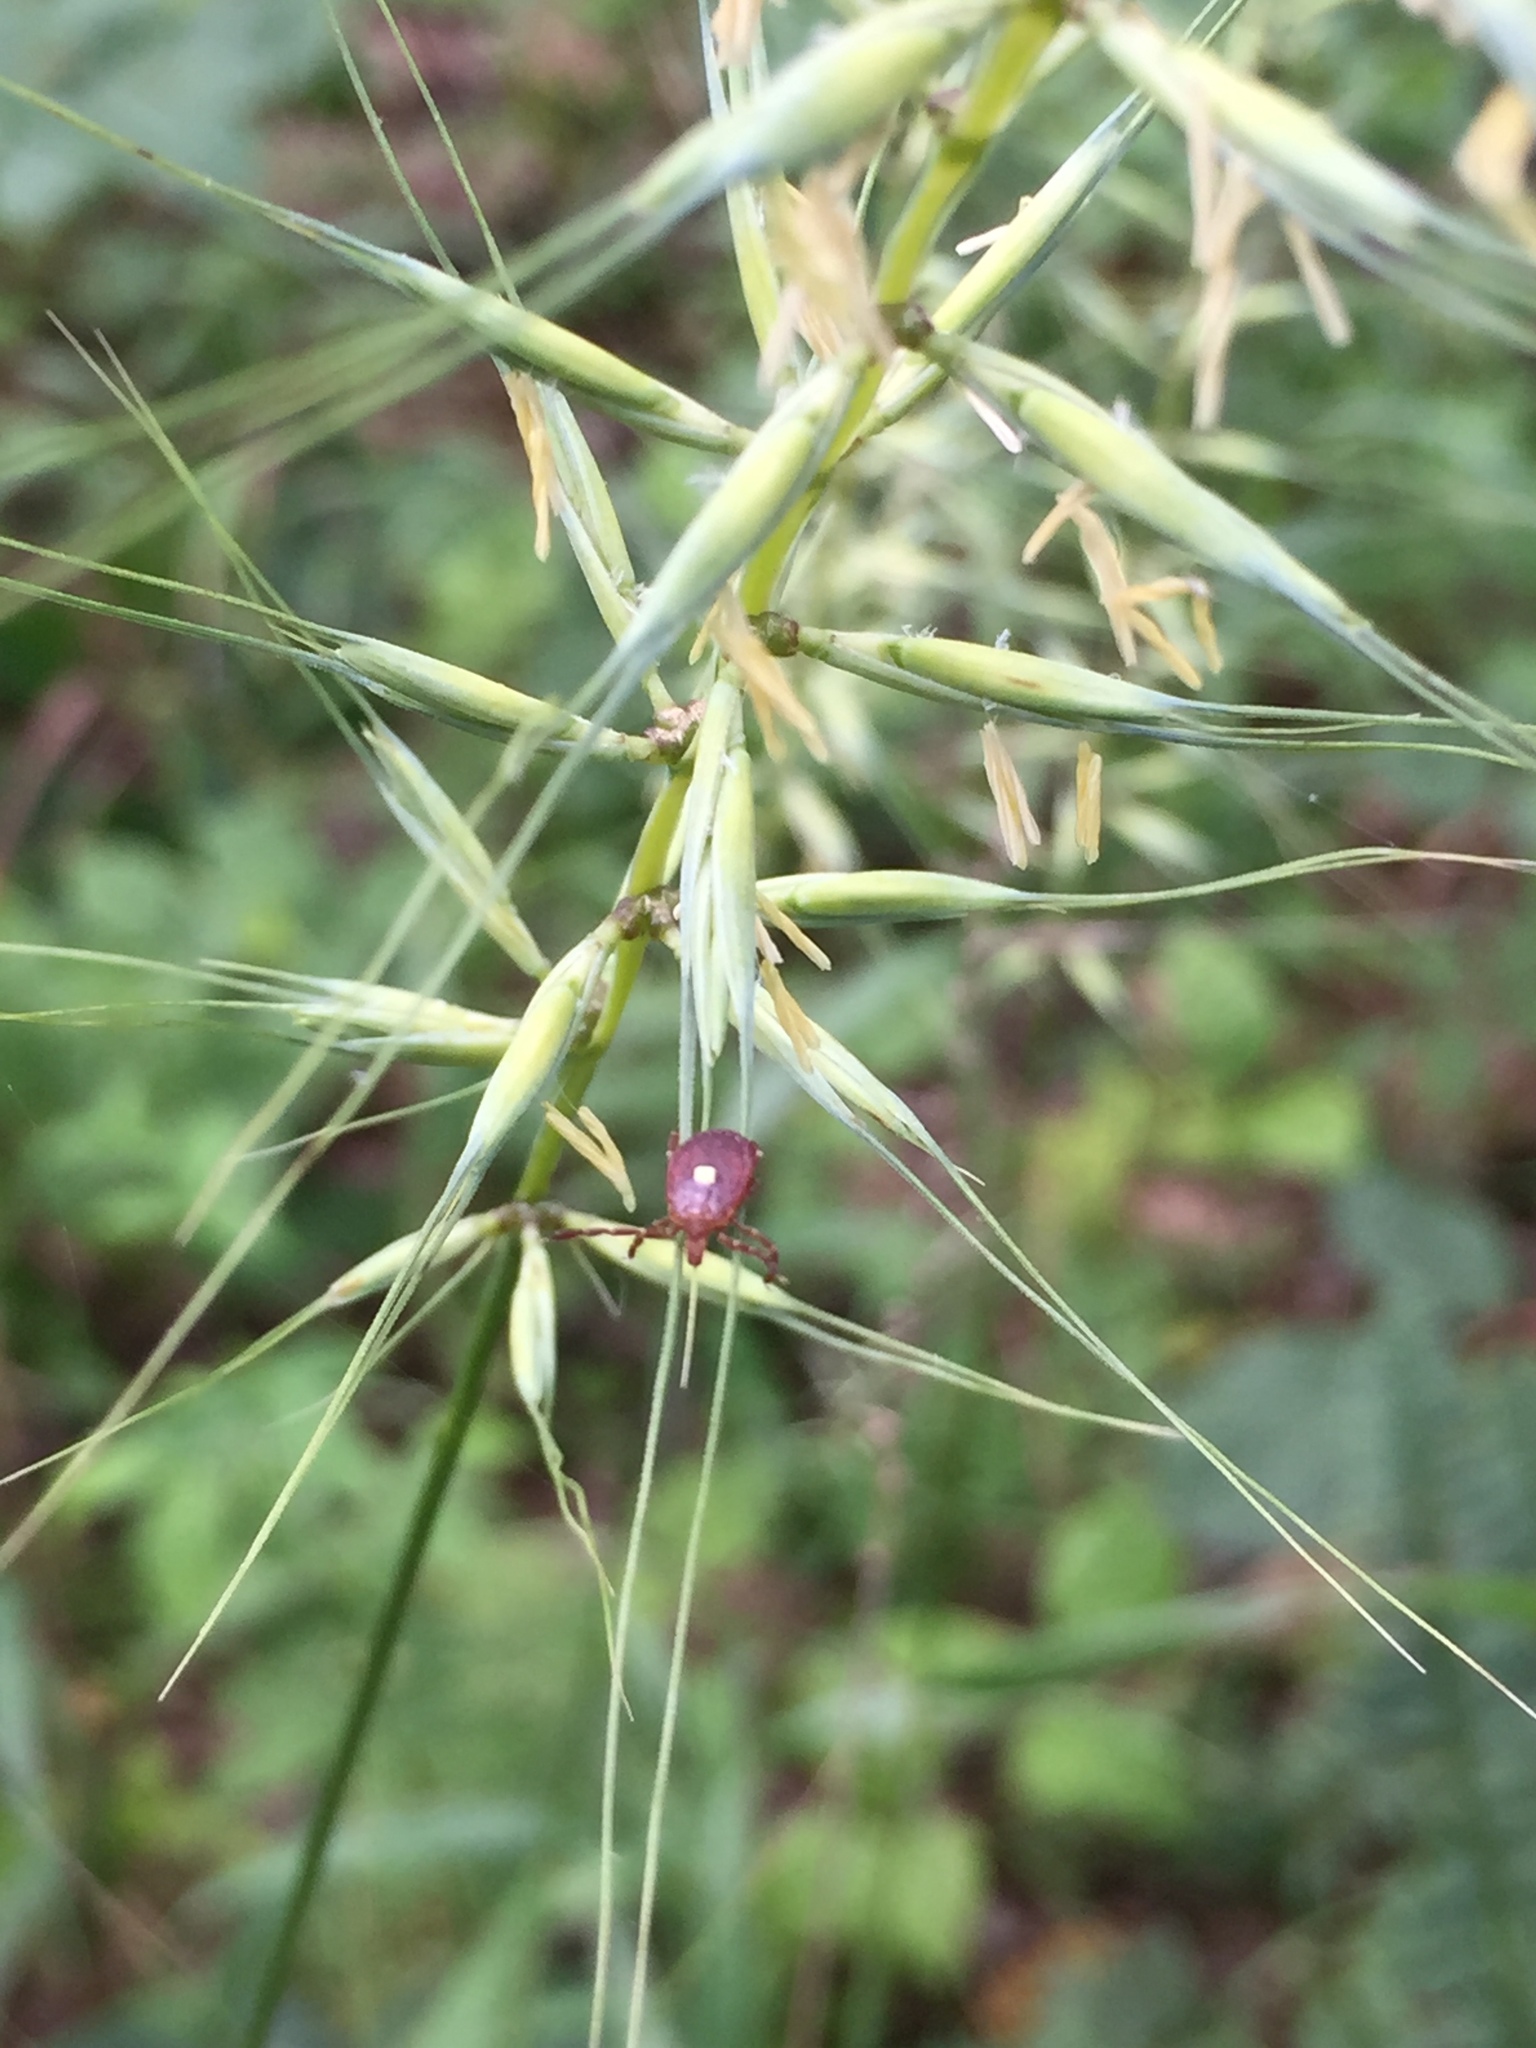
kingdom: Animalia
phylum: Arthropoda
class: Arachnida
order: Ixodida
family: Ixodidae
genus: Amblyomma
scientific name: Amblyomma americanum
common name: Lone star tick
